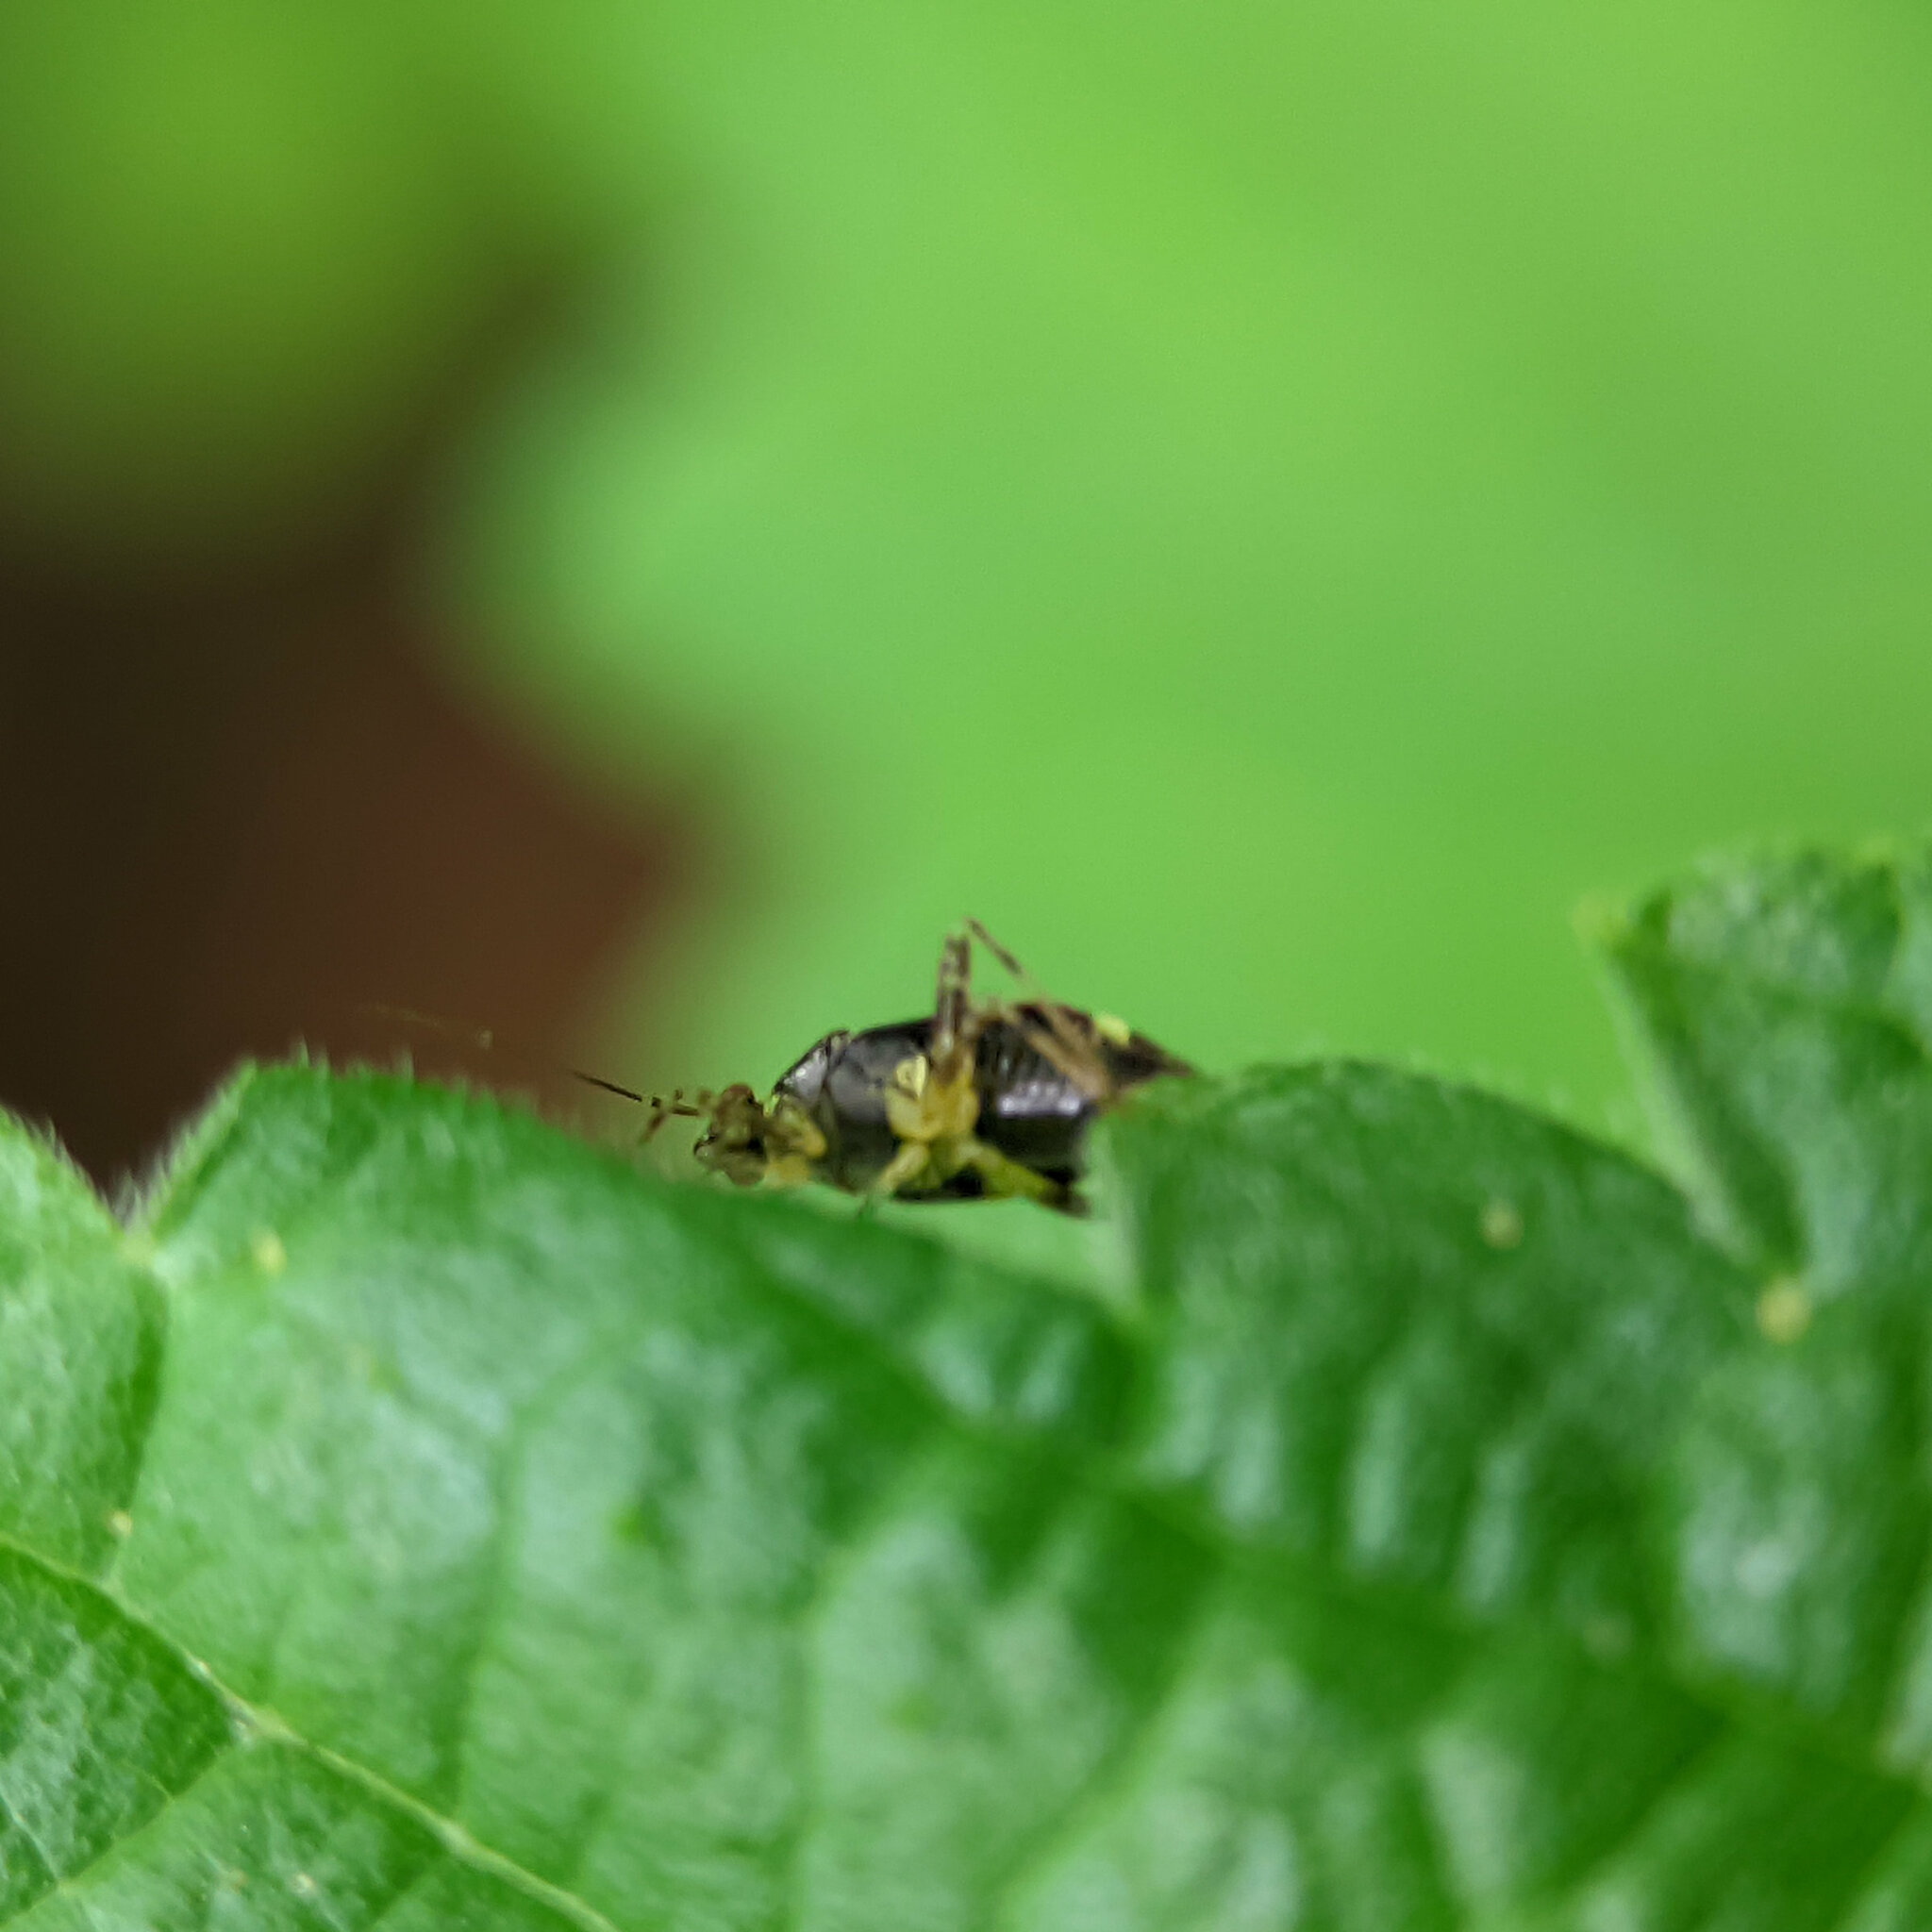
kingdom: Animalia
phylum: Arthropoda
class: Insecta
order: Hemiptera
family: Miridae
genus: Liocoris
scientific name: Liocoris tripustulatus
